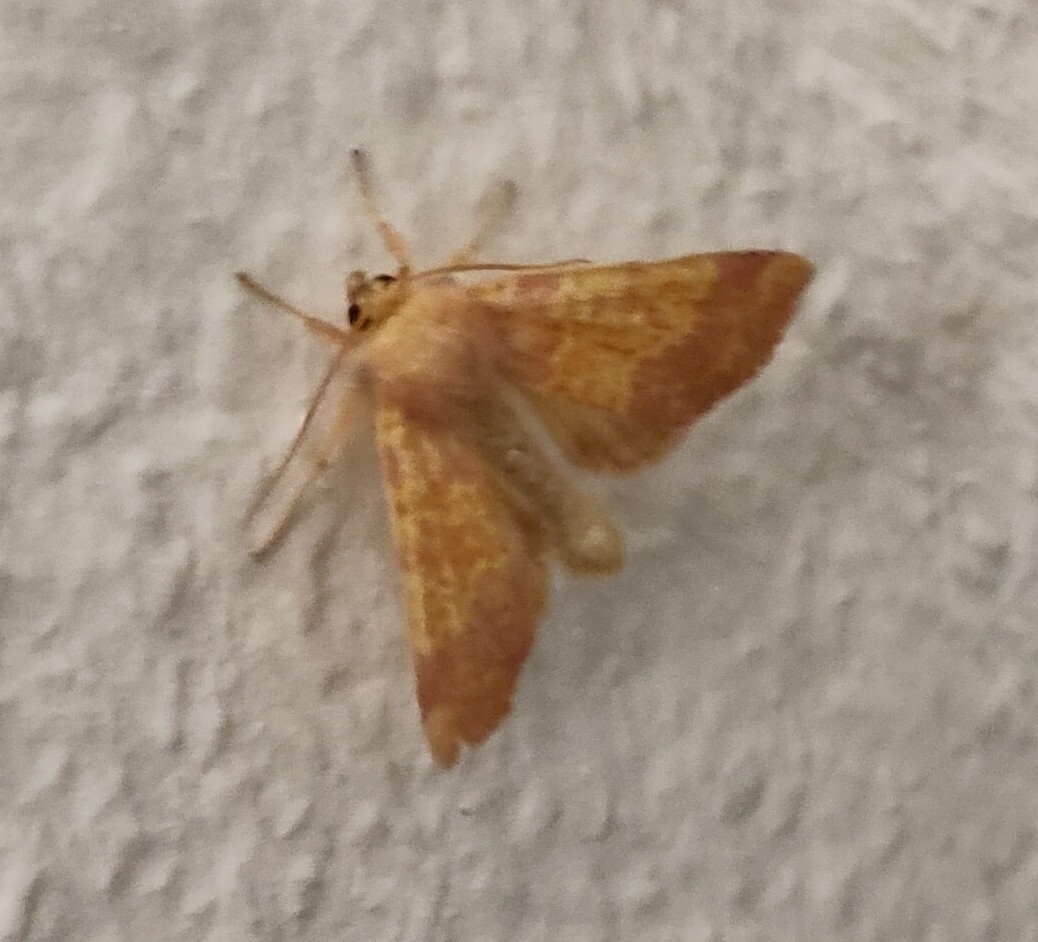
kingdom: Animalia
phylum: Arthropoda
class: Insecta
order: Lepidoptera
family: Noctuidae
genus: Tiliacea
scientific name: Tiliacea aurago
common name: Barred sallow
